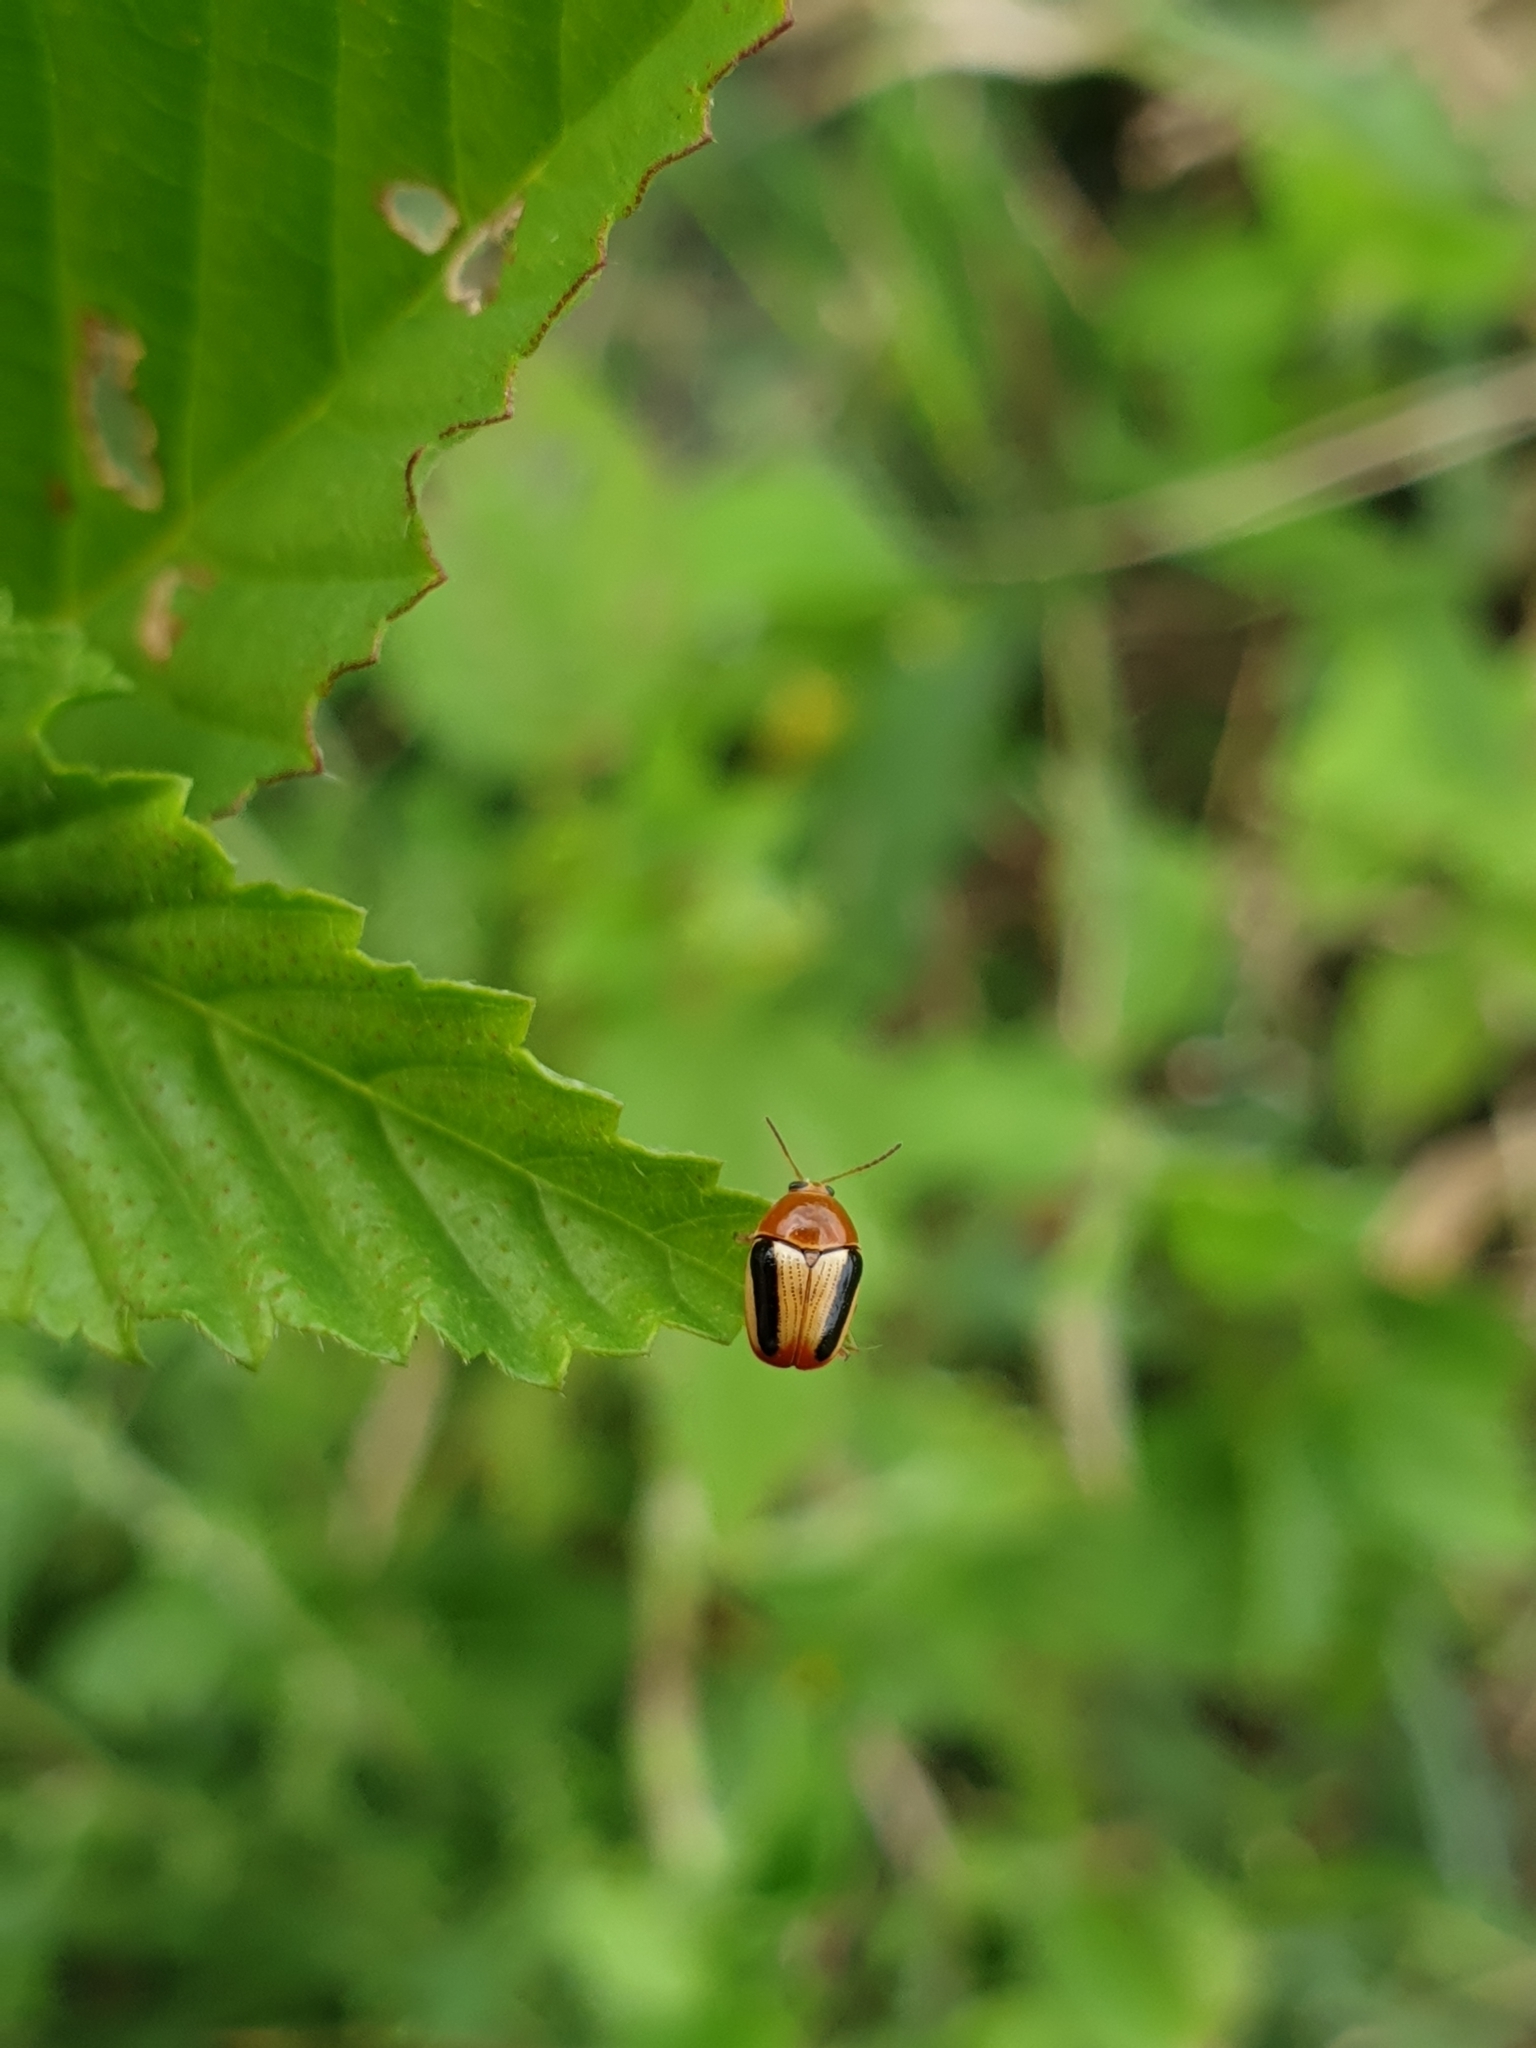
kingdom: Animalia
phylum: Arthropoda
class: Insecta
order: Coleoptera
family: Chrysomelidae
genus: Cryptocephalus
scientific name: Cryptocephalus
